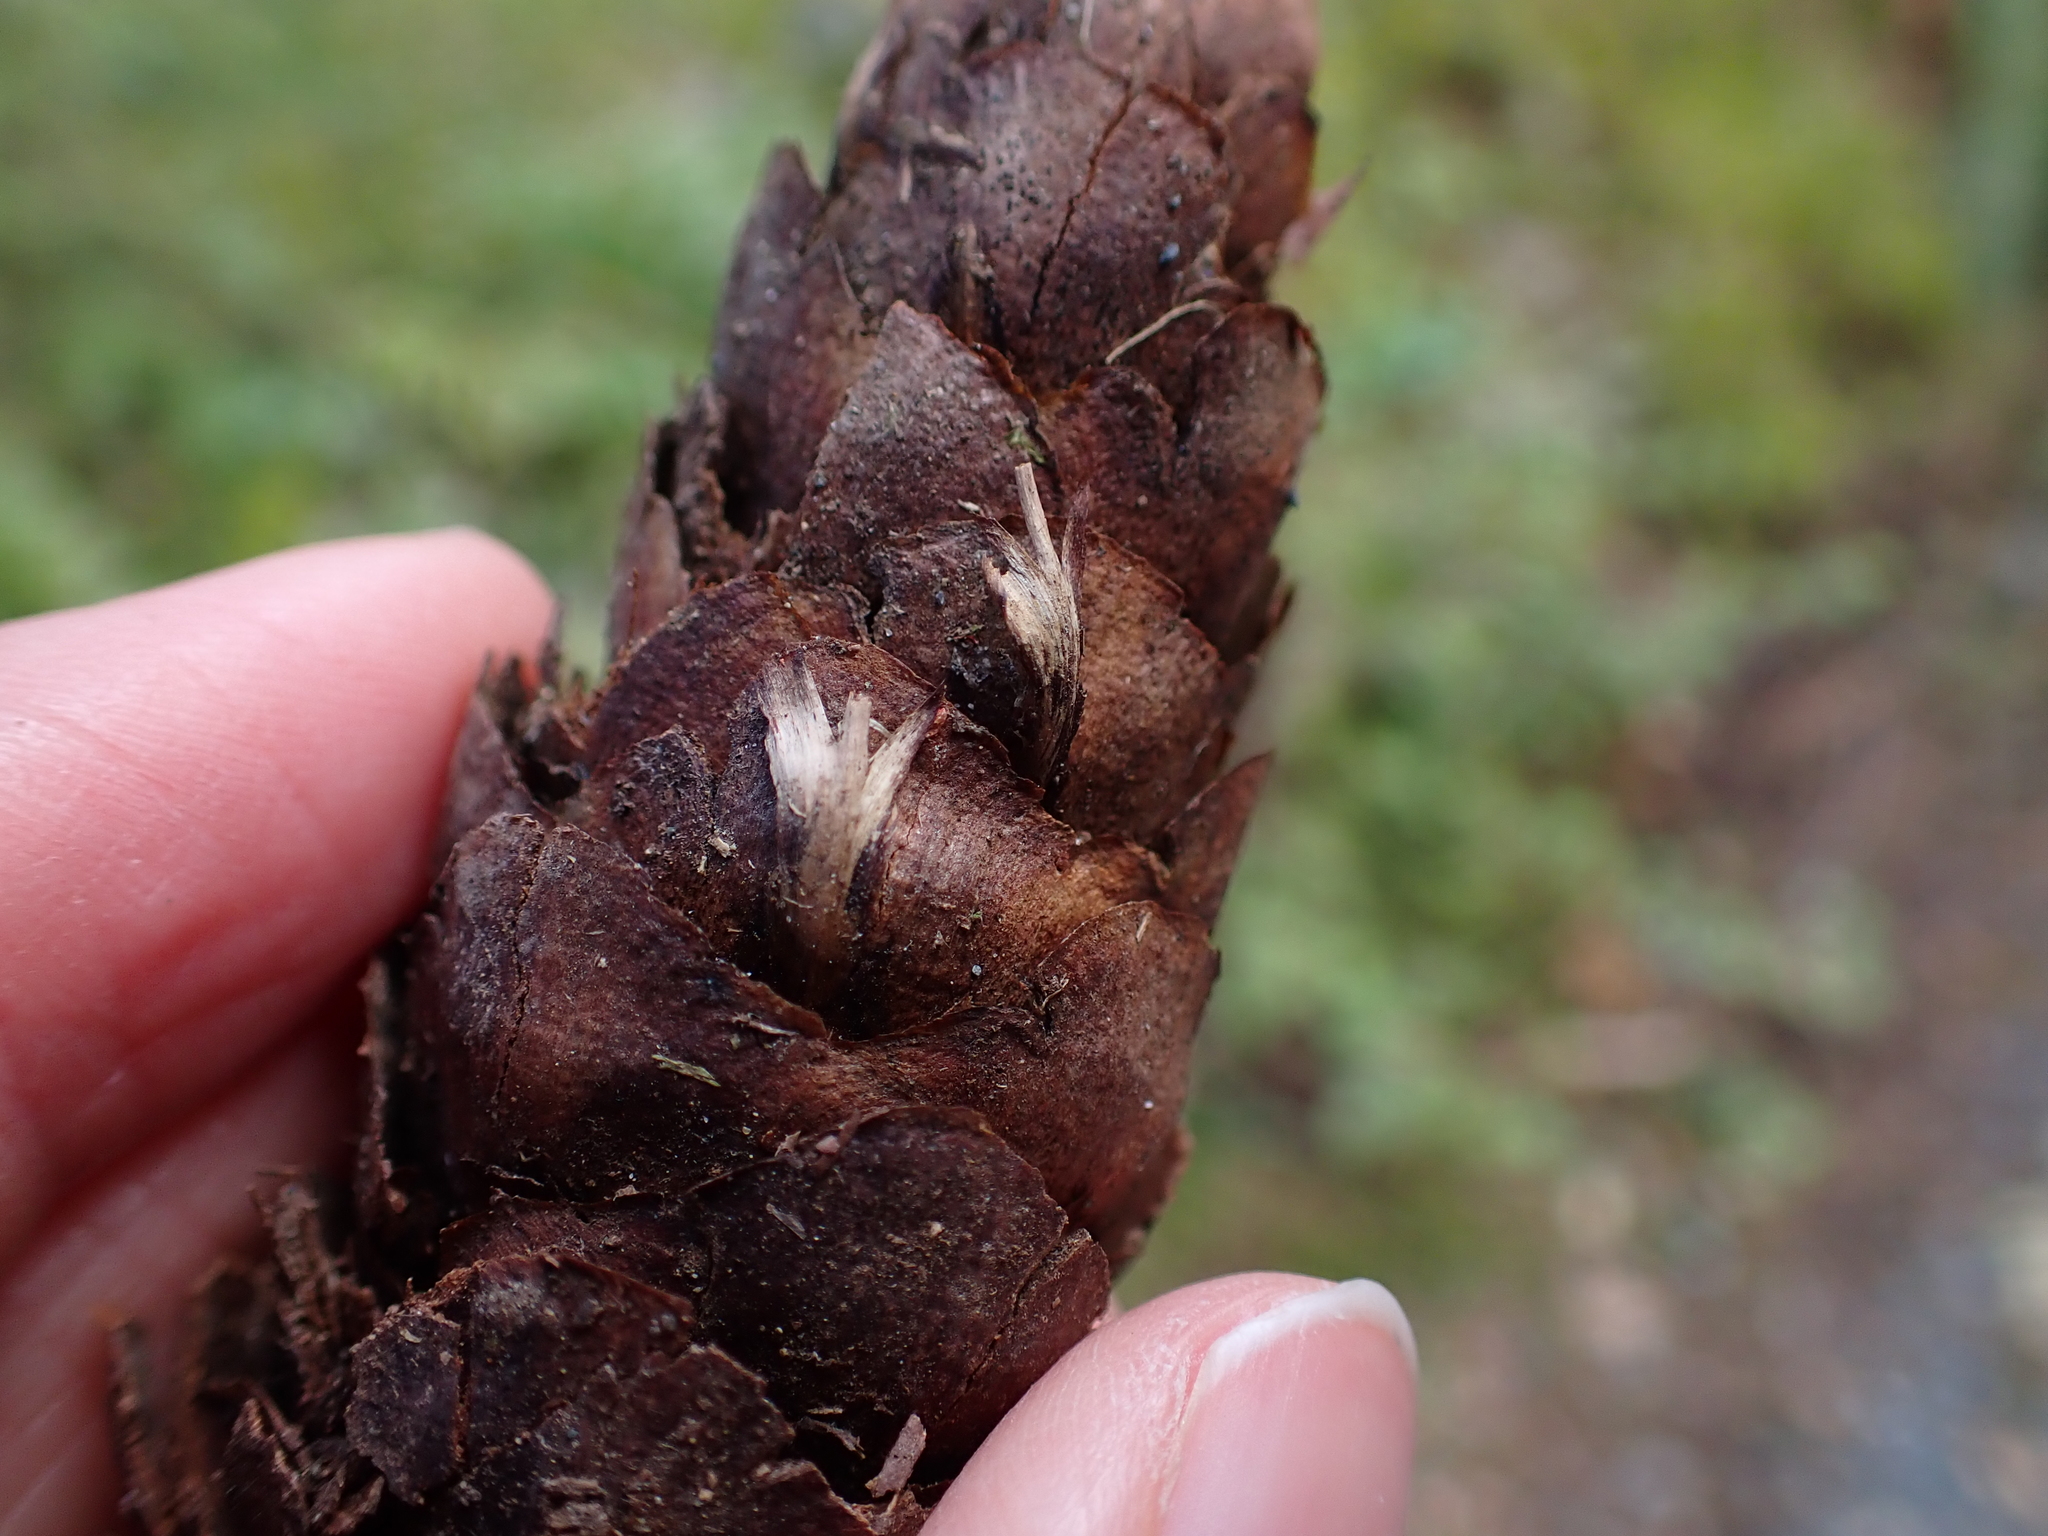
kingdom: Plantae
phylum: Tracheophyta
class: Pinopsida
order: Pinales
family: Pinaceae
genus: Pseudotsuga
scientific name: Pseudotsuga menziesii
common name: Douglas fir
